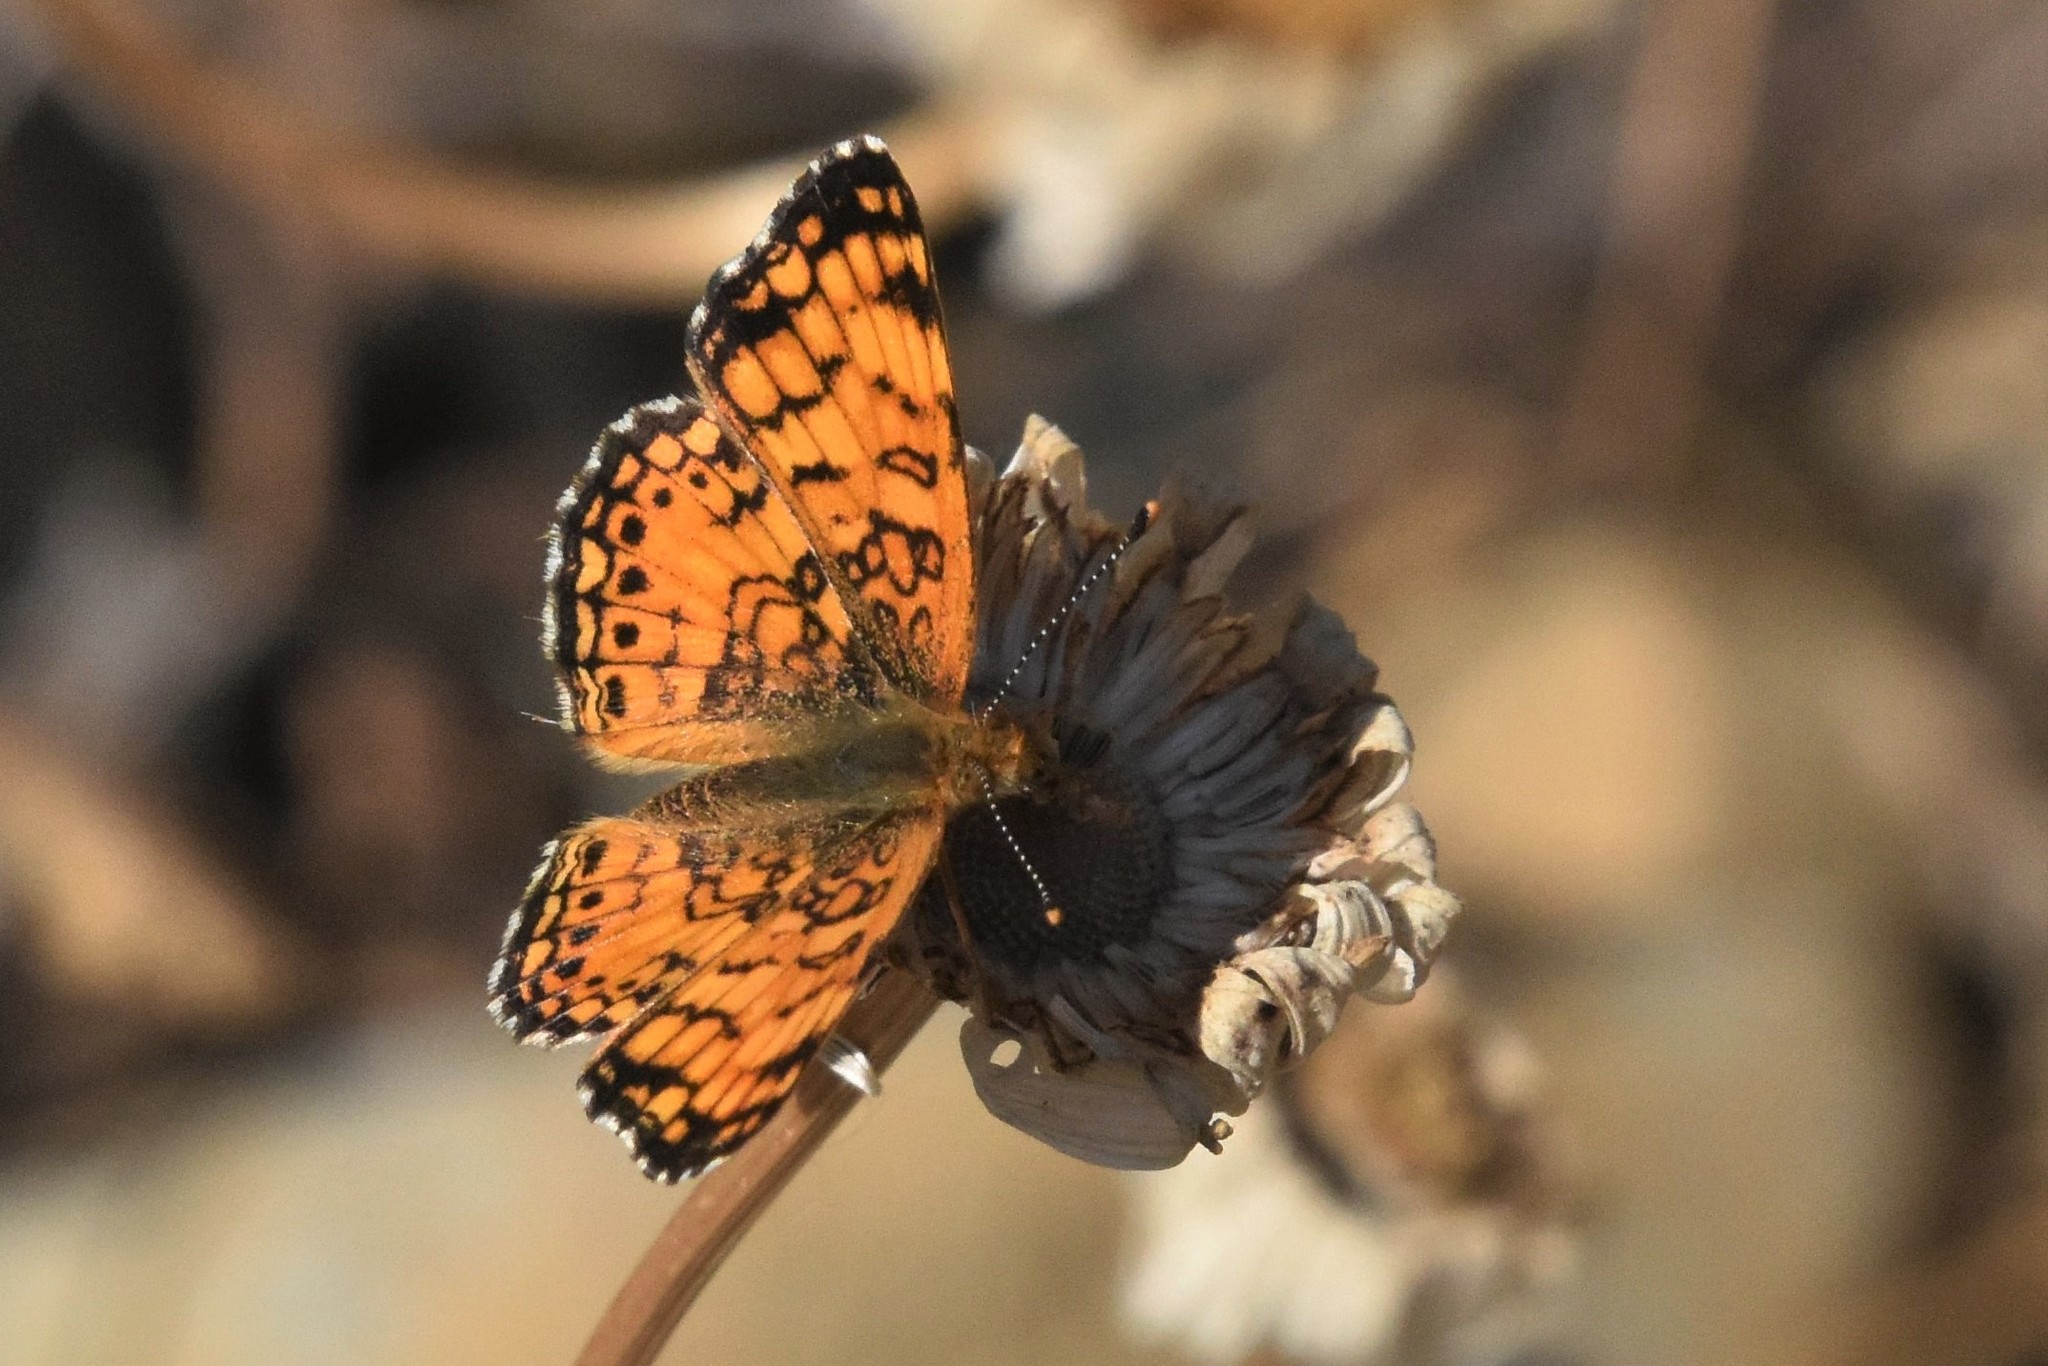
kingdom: Animalia
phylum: Arthropoda
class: Insecta
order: Lepidoptera
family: Nymphalidae
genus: Eresia
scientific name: Eresia aveyrona
